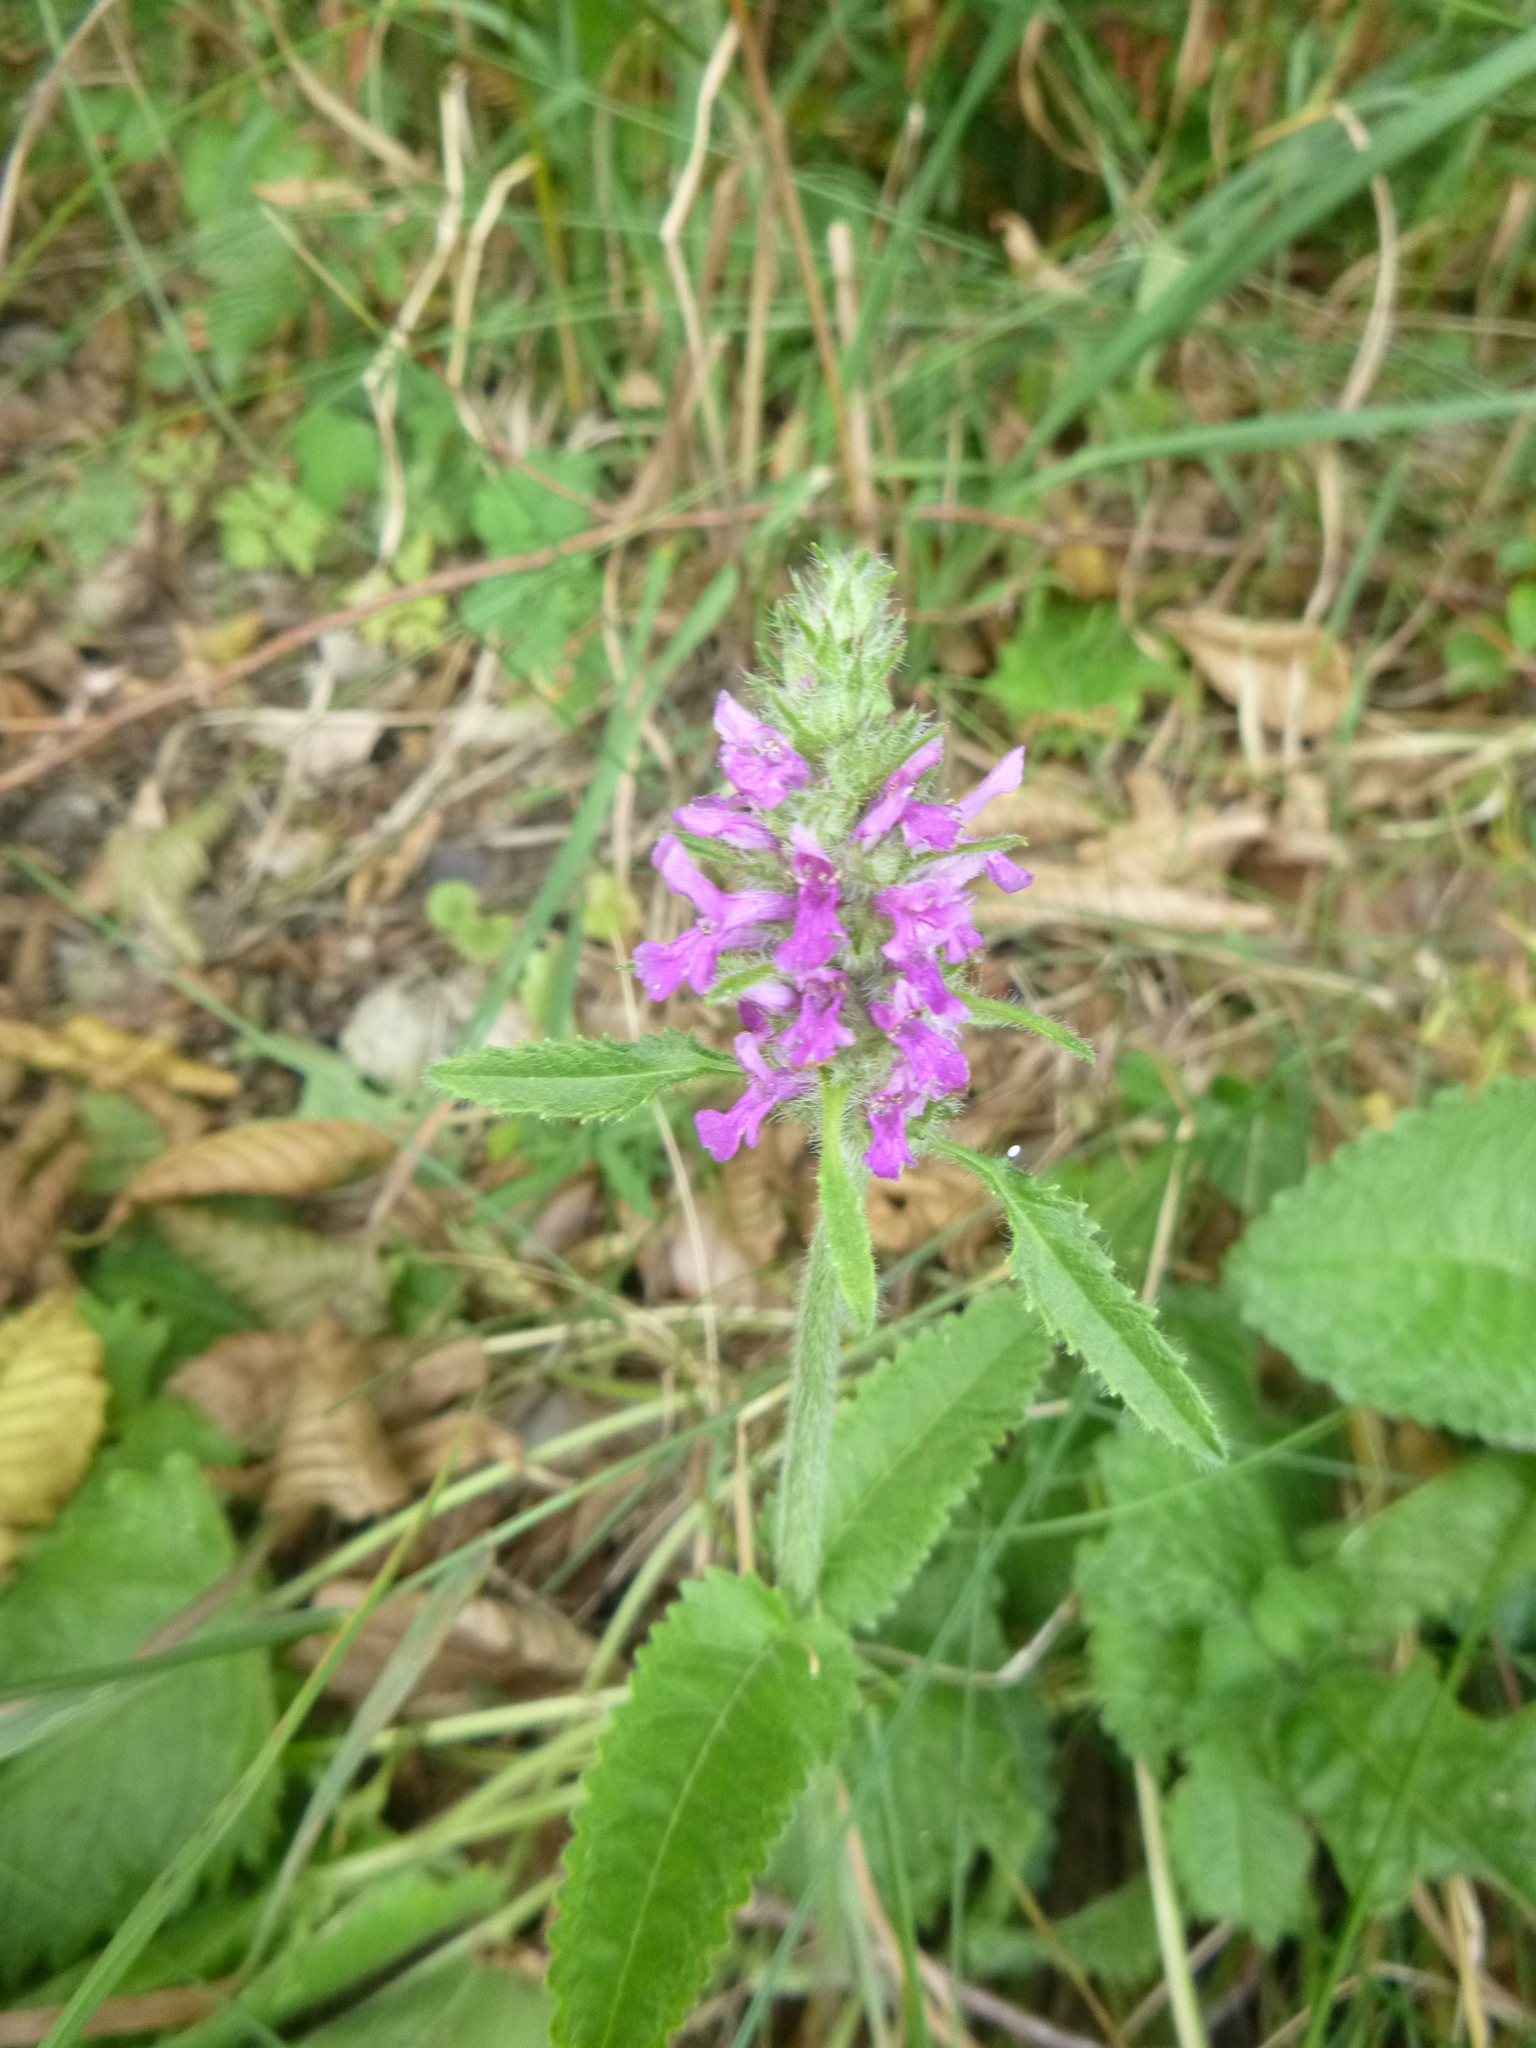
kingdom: Plantae
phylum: Tracheophyta
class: Magnoliopsida
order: Lamiales
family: Lamiaceae
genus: Betonica
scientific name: Betonica officinalis
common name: Bishop's-wort
